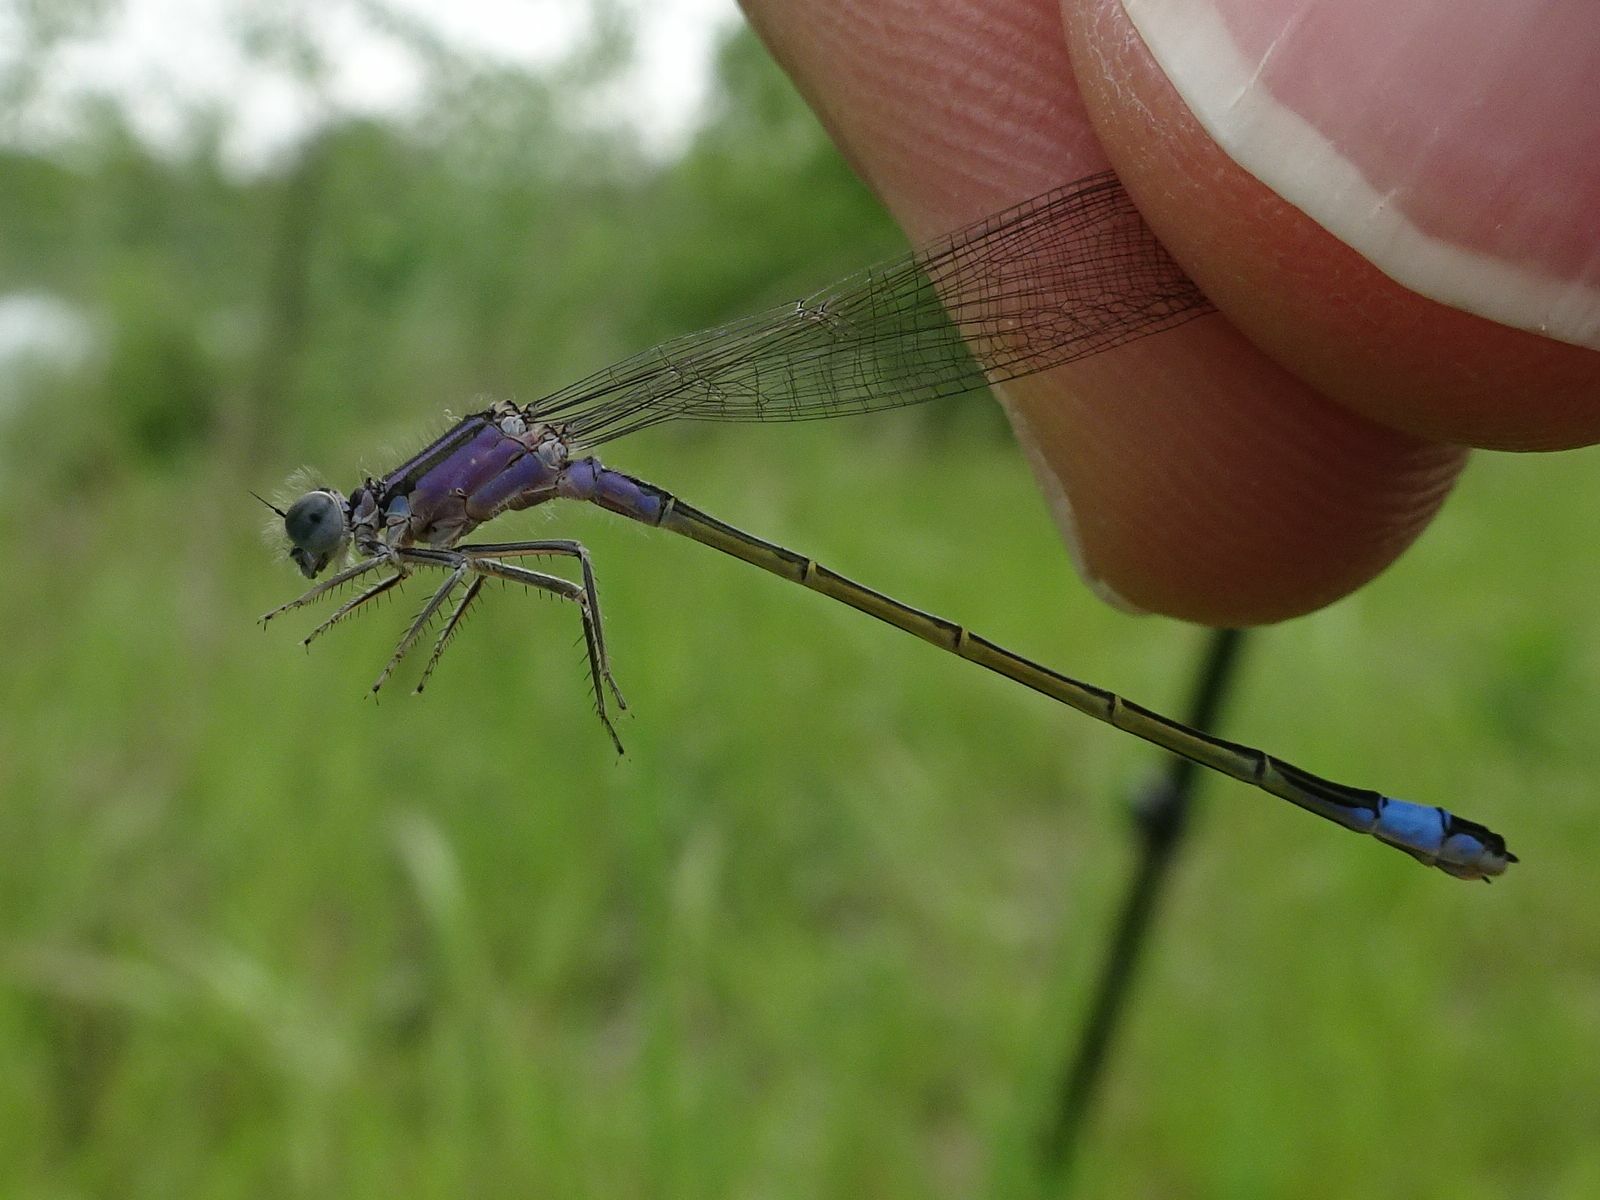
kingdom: Animalia
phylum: Arthropoda
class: Insecta
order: Odonata
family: Coenagrionidae
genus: Ischnura
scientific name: Ischnura elegans
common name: Blue-tailed damselfly
